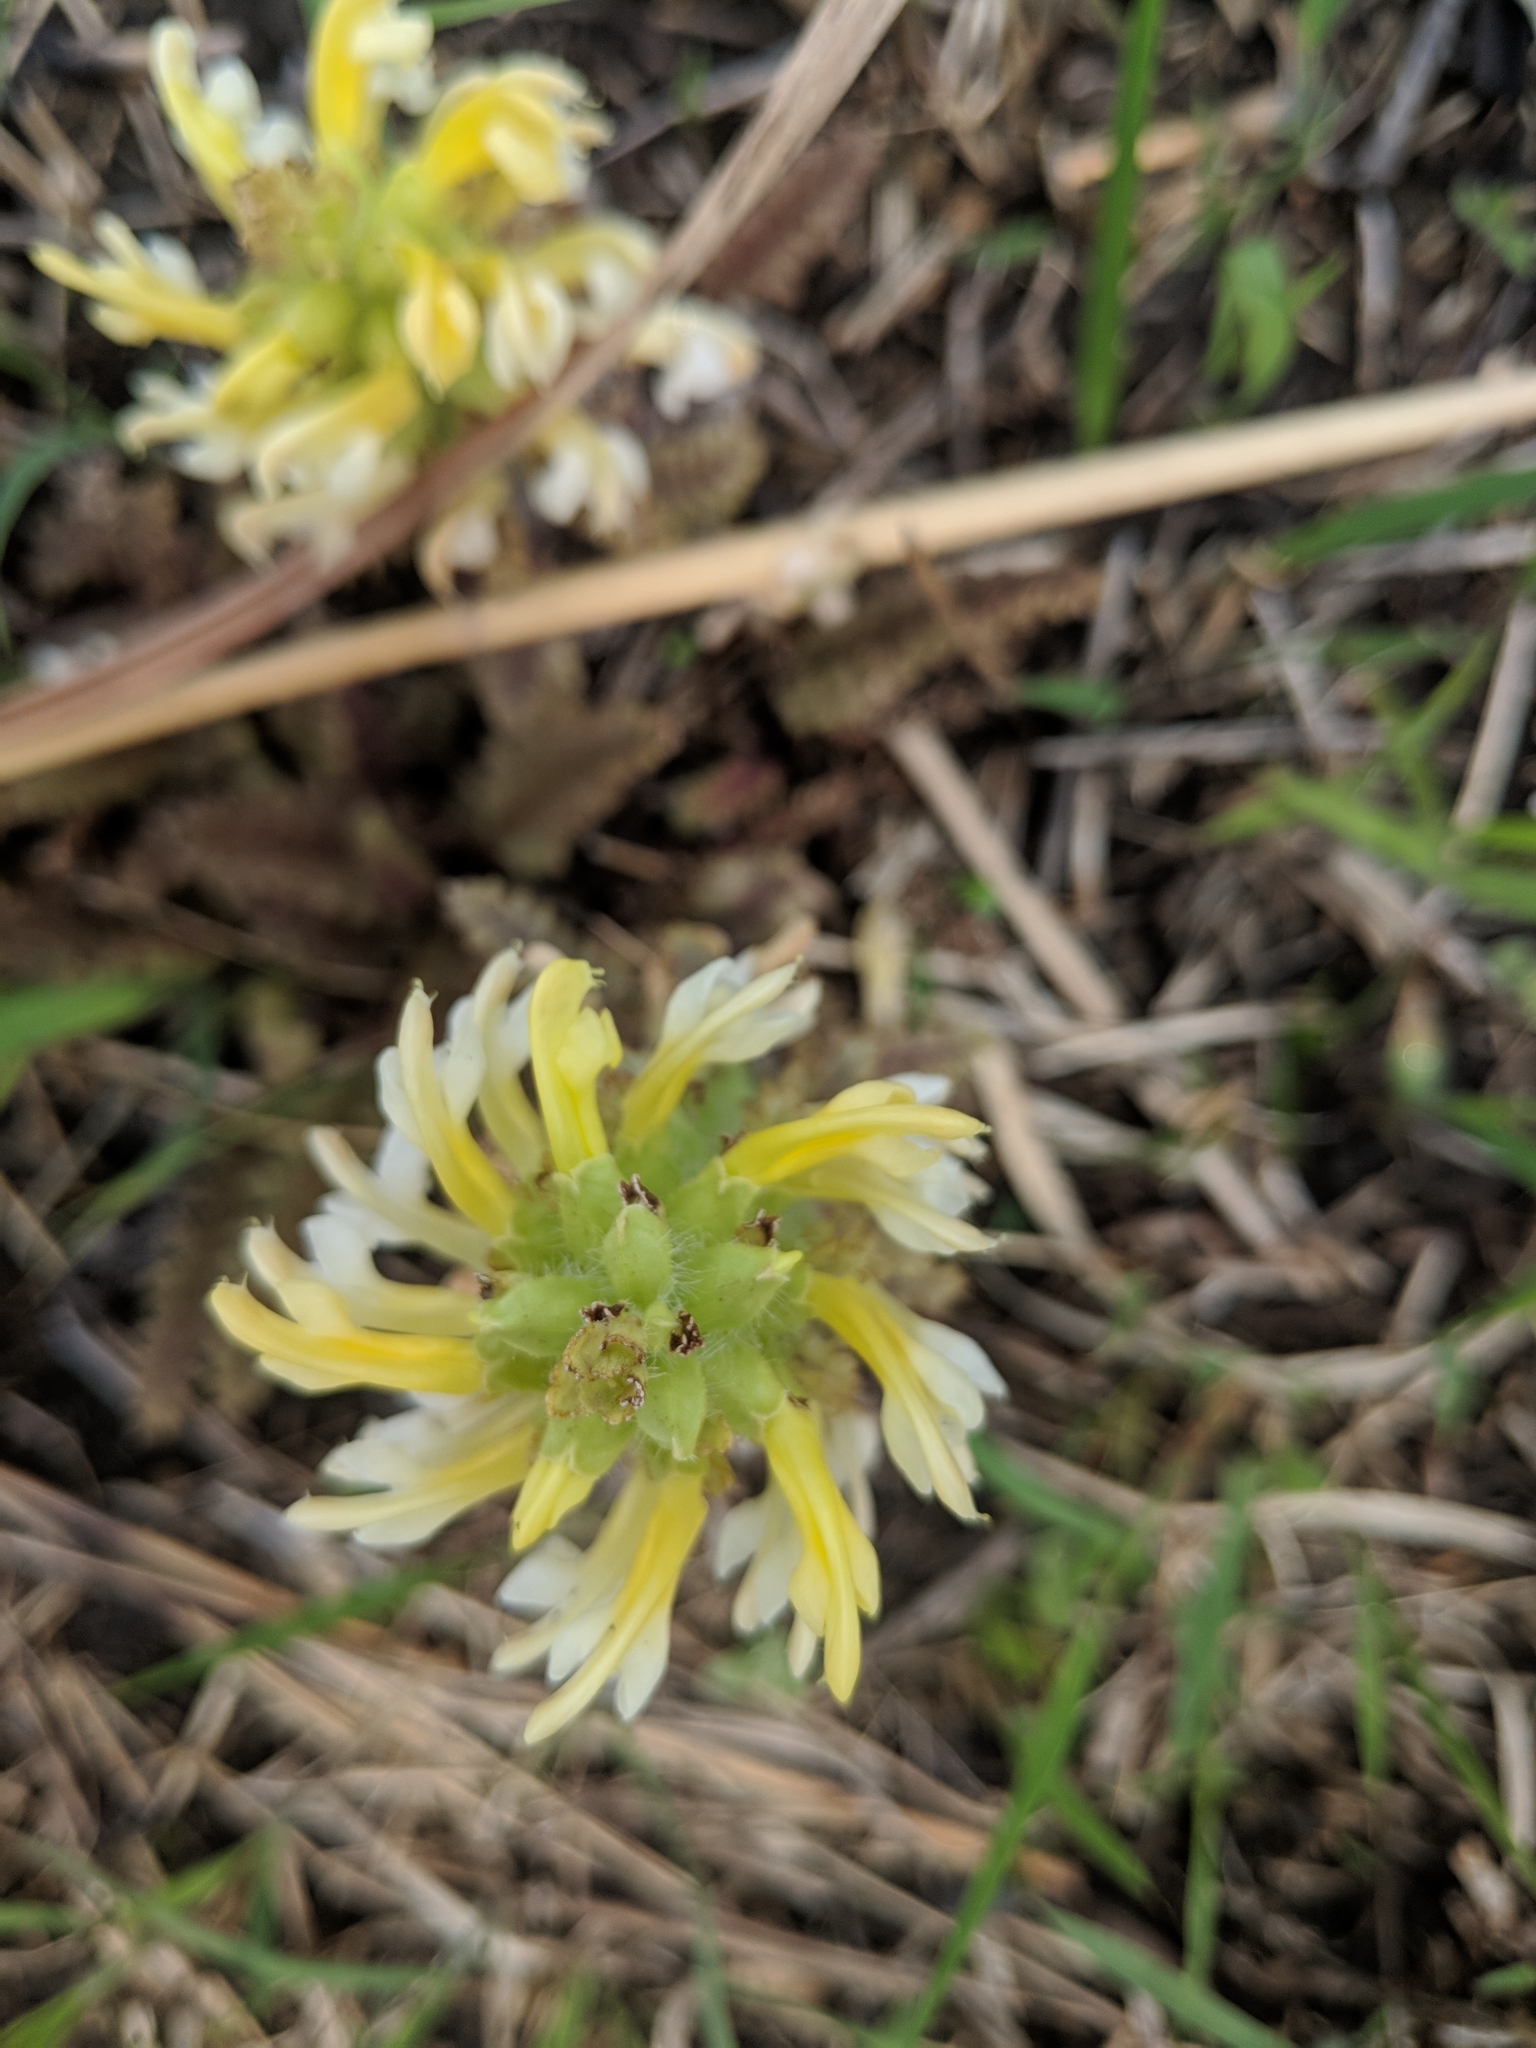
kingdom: Plantae
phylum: Tracheophyta
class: Magnoliopsida
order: Lamiales
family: Orobanchaceae
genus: Pedicularis
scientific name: Pedicularis canadensis
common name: Early lousewort
